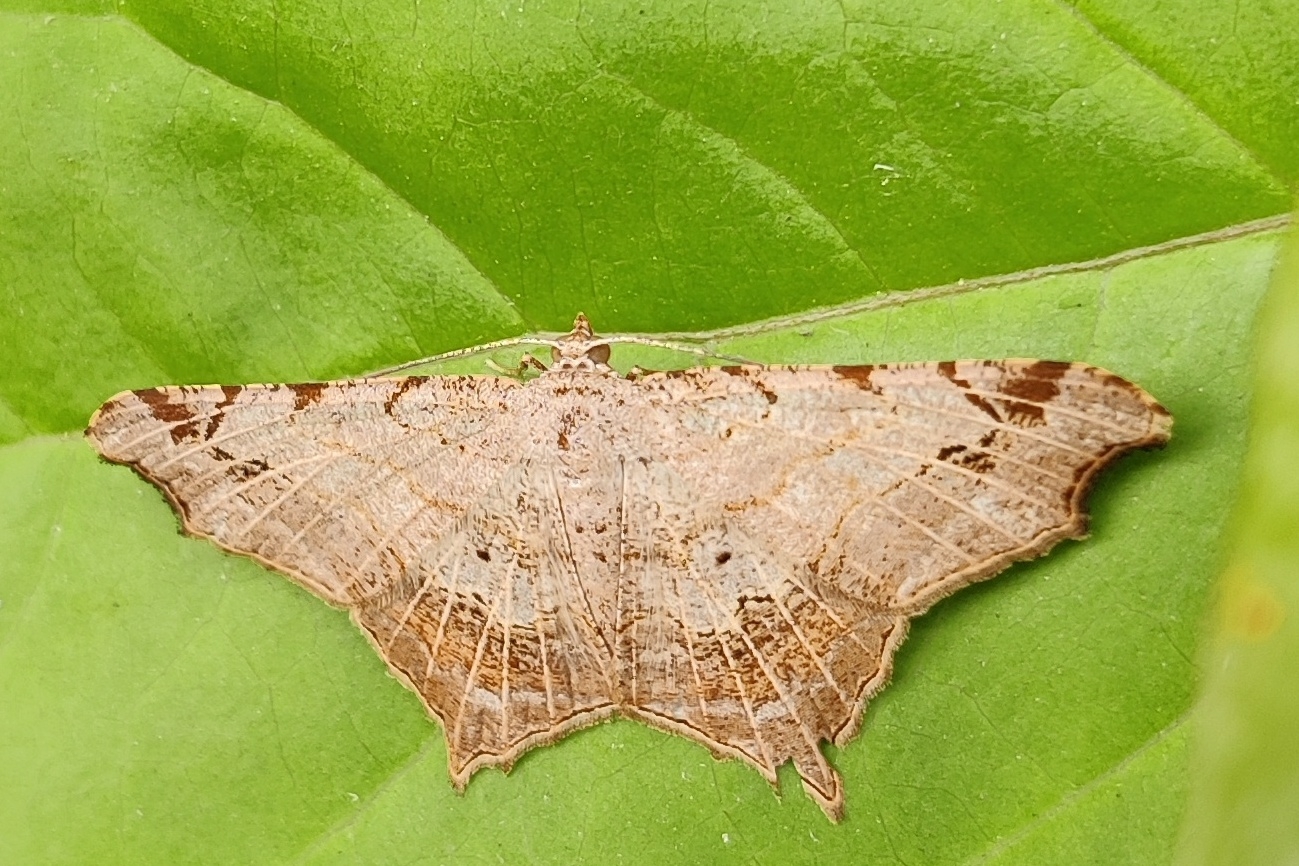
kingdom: Animalia
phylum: Arthropoda
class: Insecta
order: Lepidoptera
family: Geometridae
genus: Chiasmia
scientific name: Chiasmia emersaria
